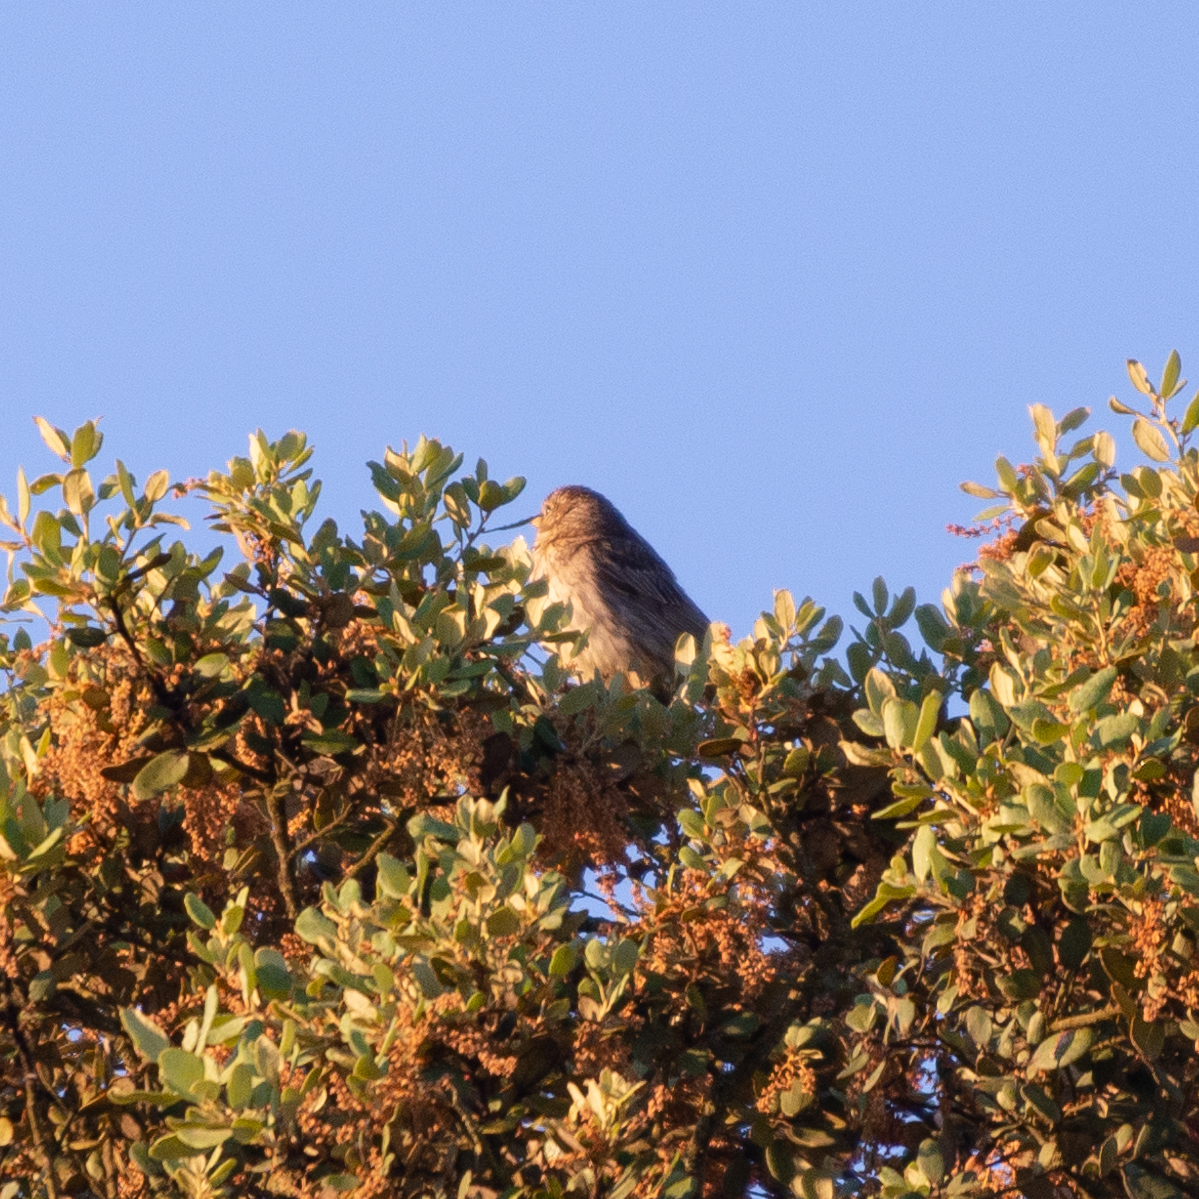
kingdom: Animalia
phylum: Chordata
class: Aves
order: Passeriformes
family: Emberizidae
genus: Emberiza
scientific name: Emberiza calandra
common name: Corn bunting
